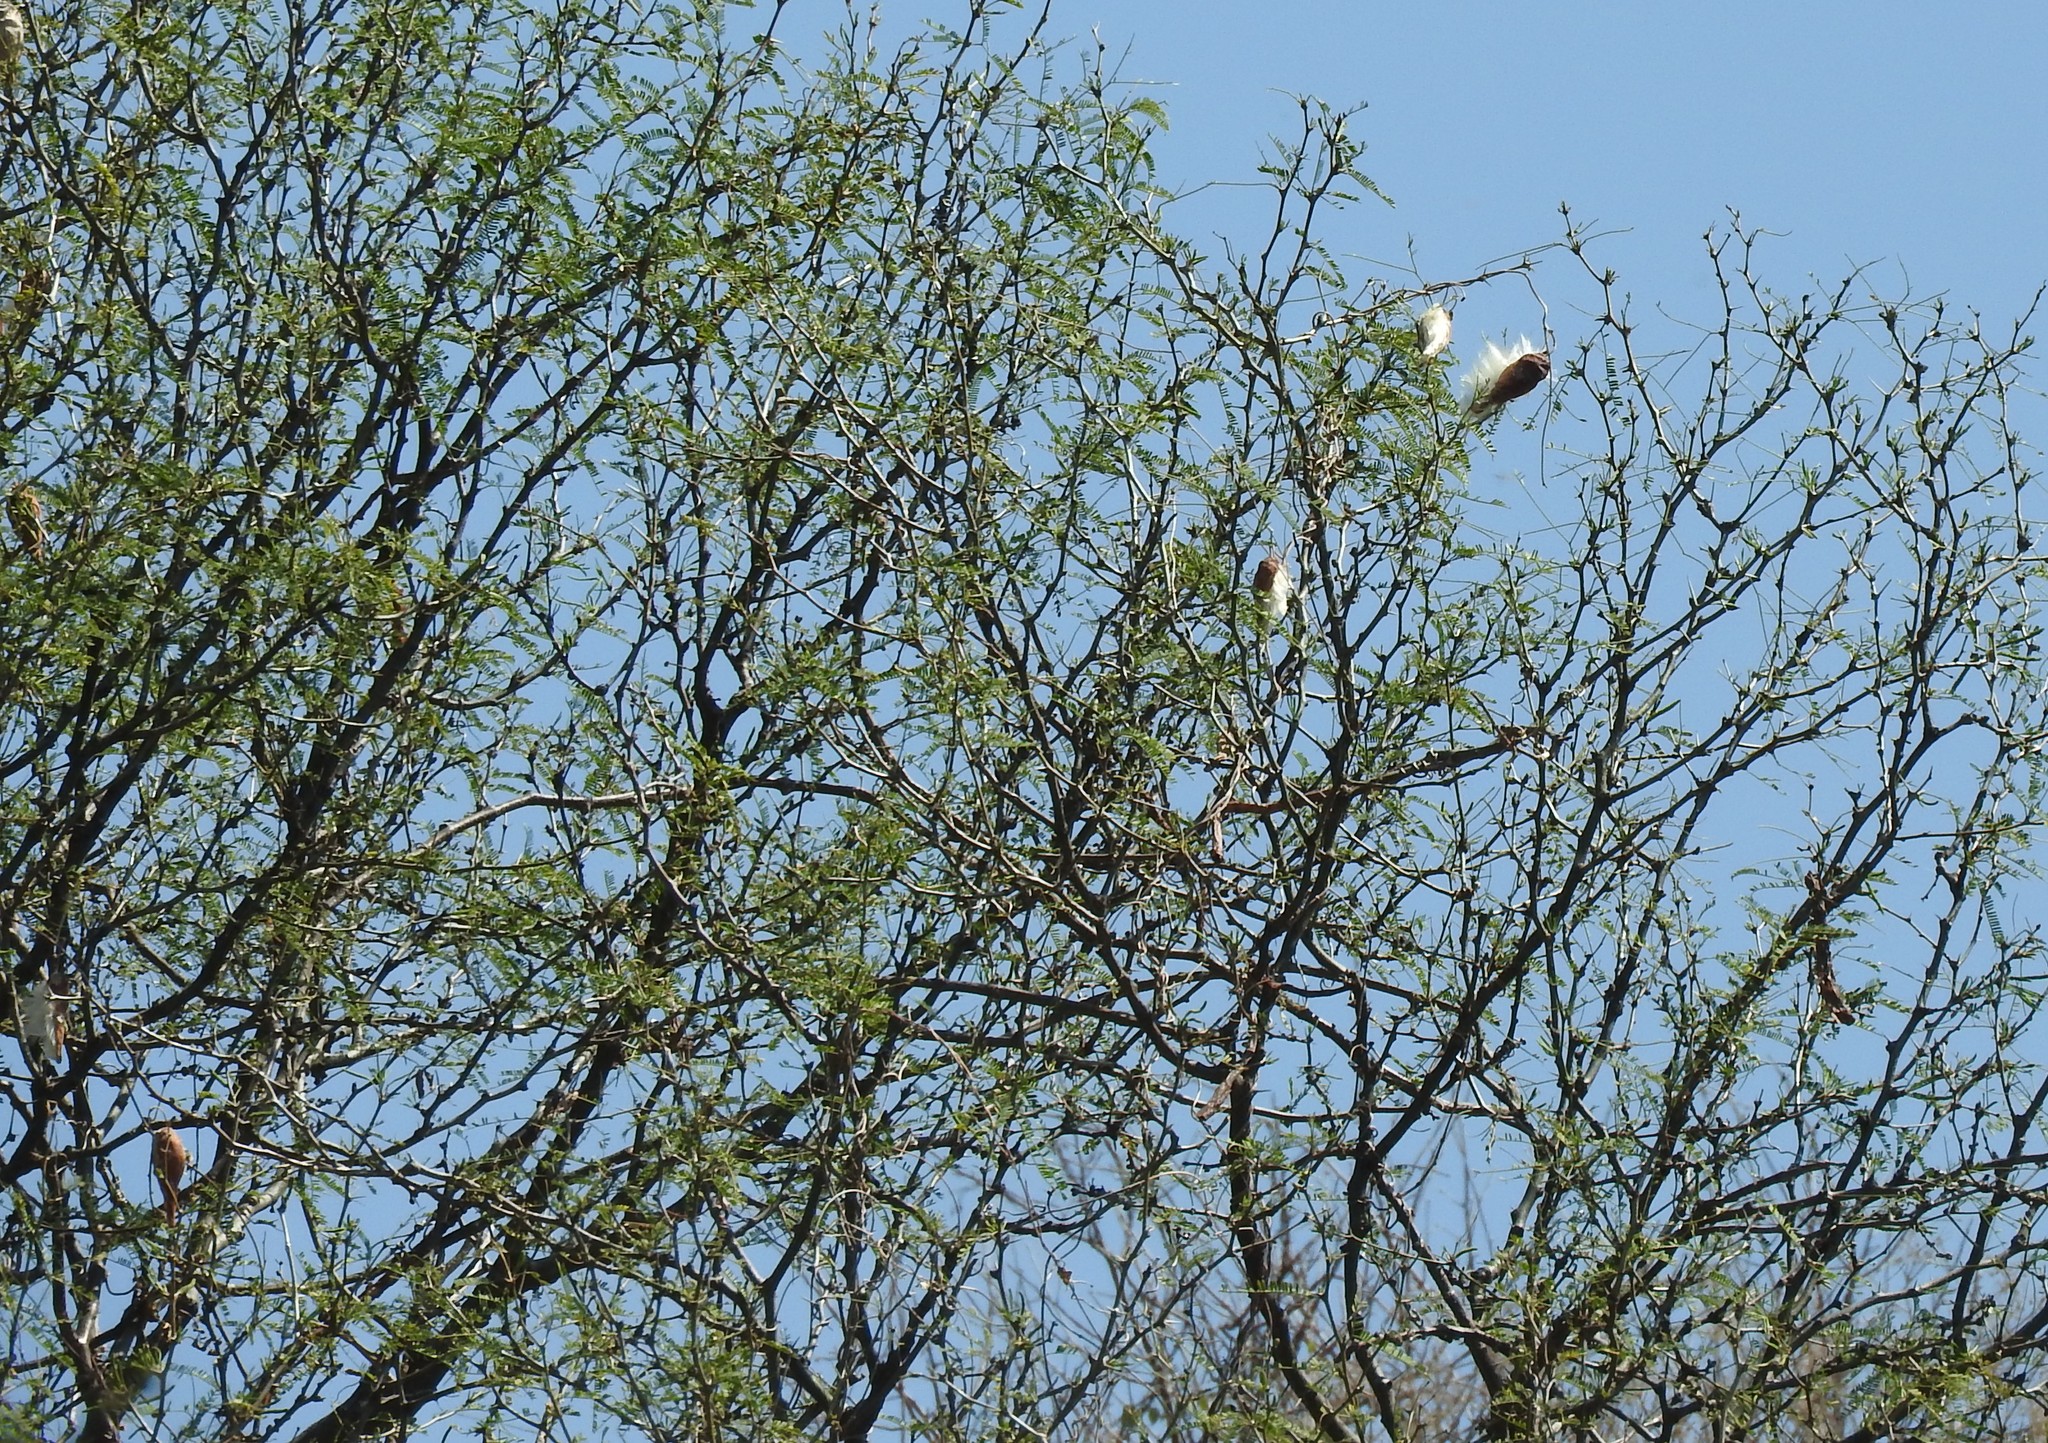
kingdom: Plantae
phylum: Tracheophyta
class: Magnoliopsida
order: Gentianales
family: Apocynaceae
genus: Funastrum
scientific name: Funastrum pannosum
